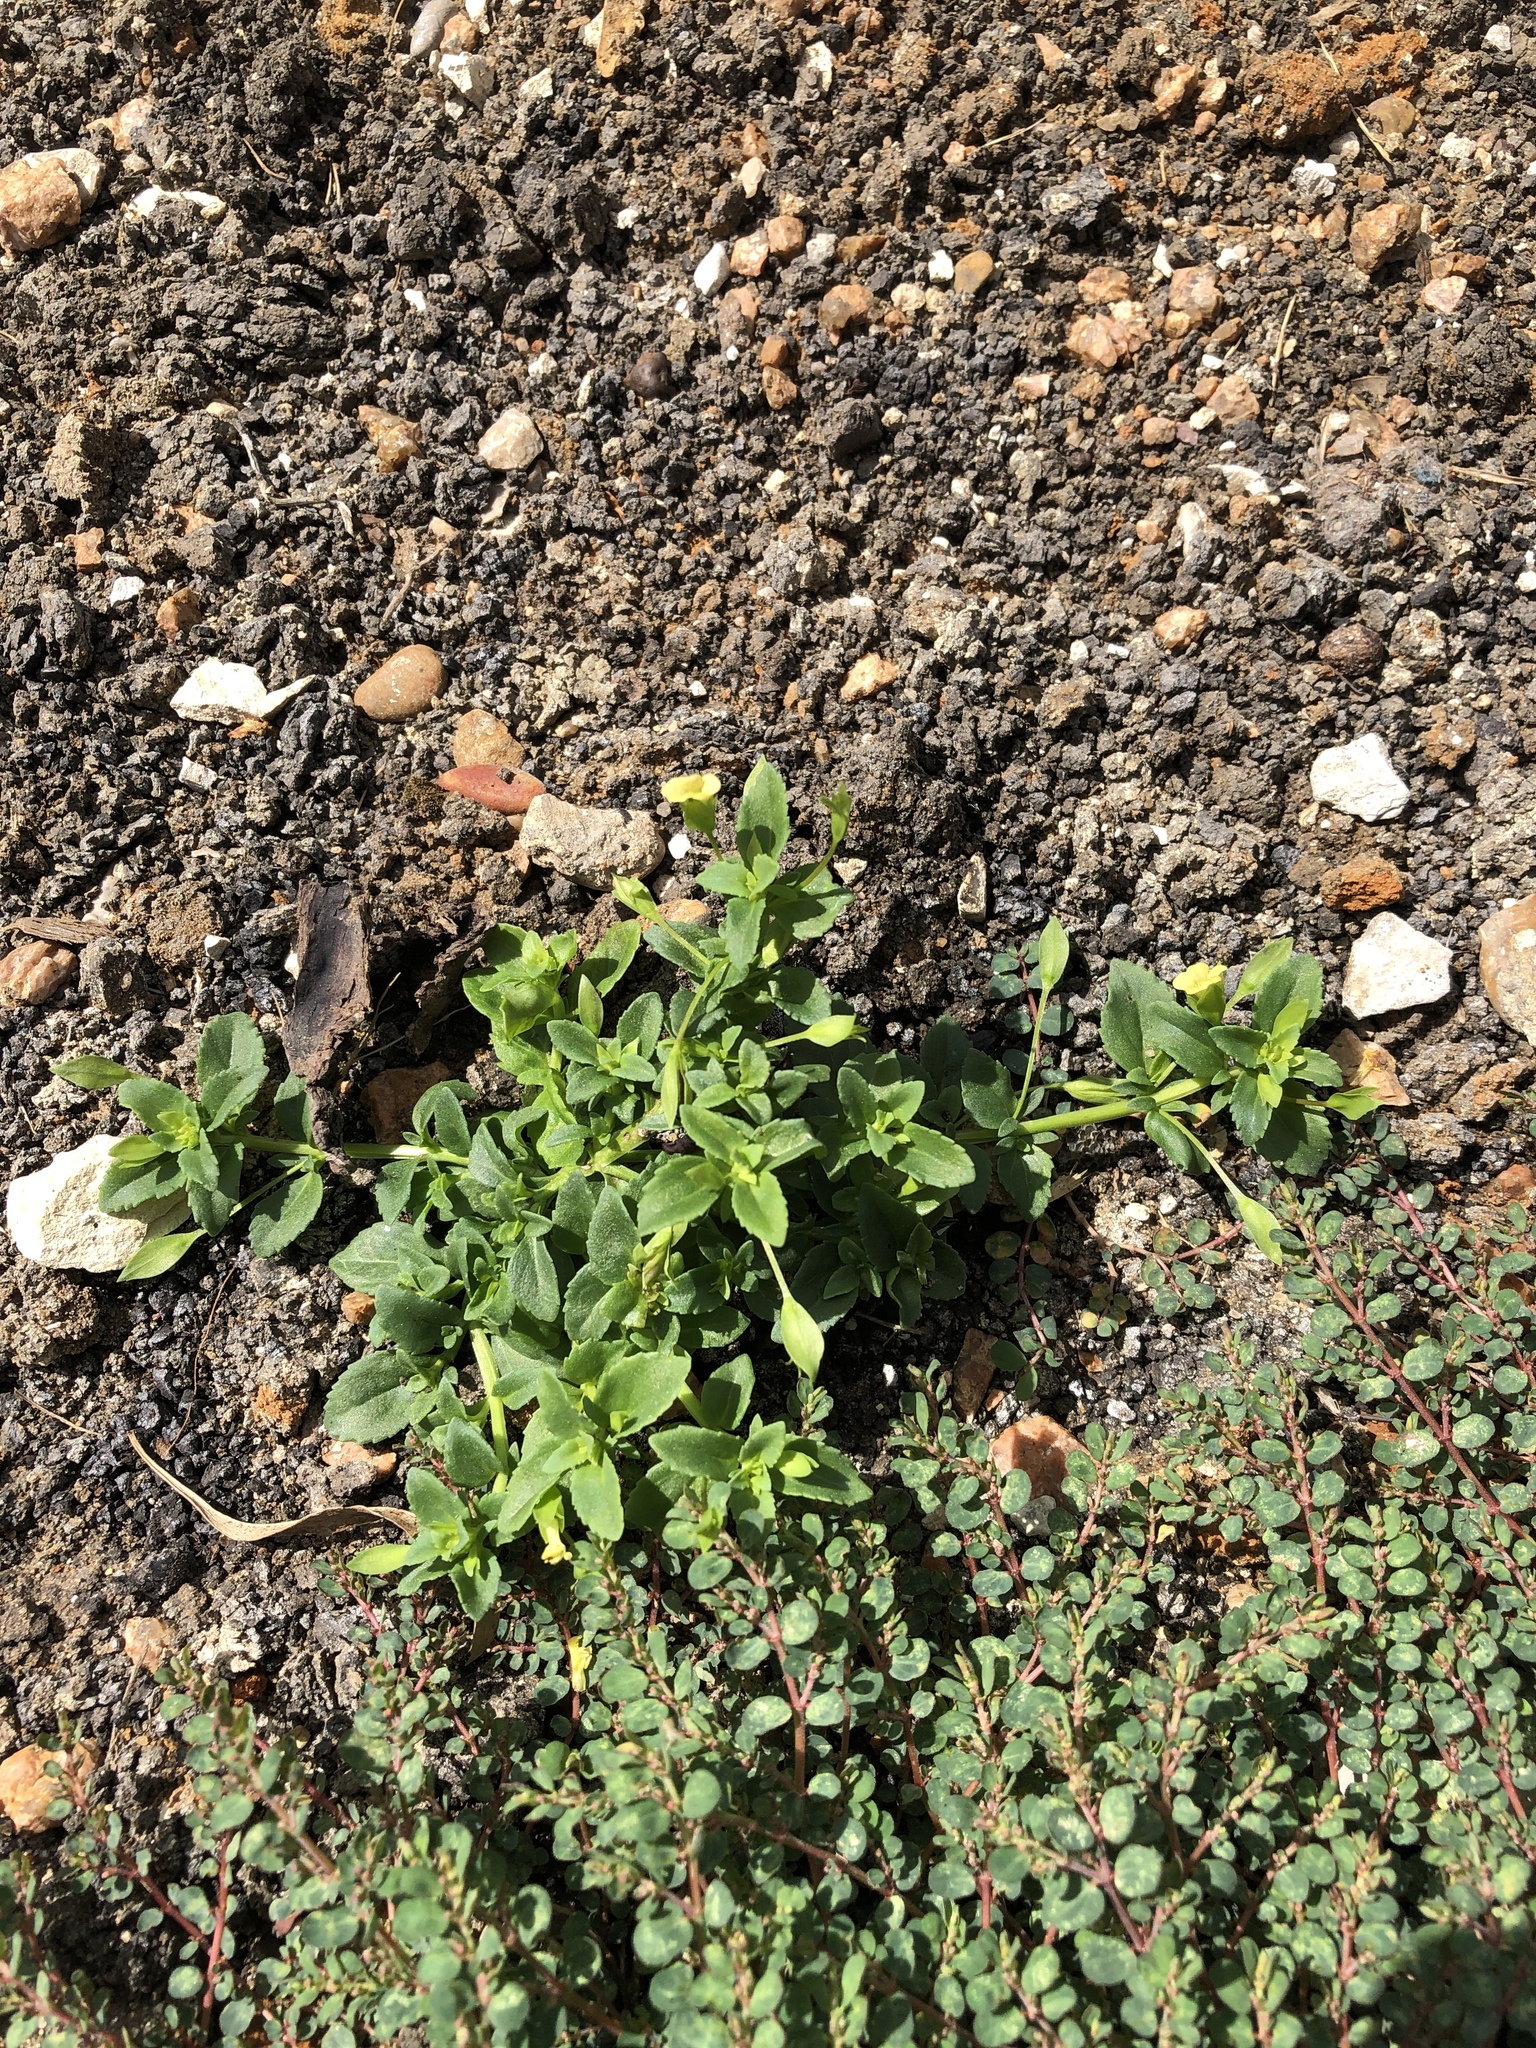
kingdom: Plantae
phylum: Tracheophyta
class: Magnoliopsida
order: Lamiales
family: Plantaginaceae
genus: Mecardonia
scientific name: Mecardonia procumbens
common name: Baby jump-up
